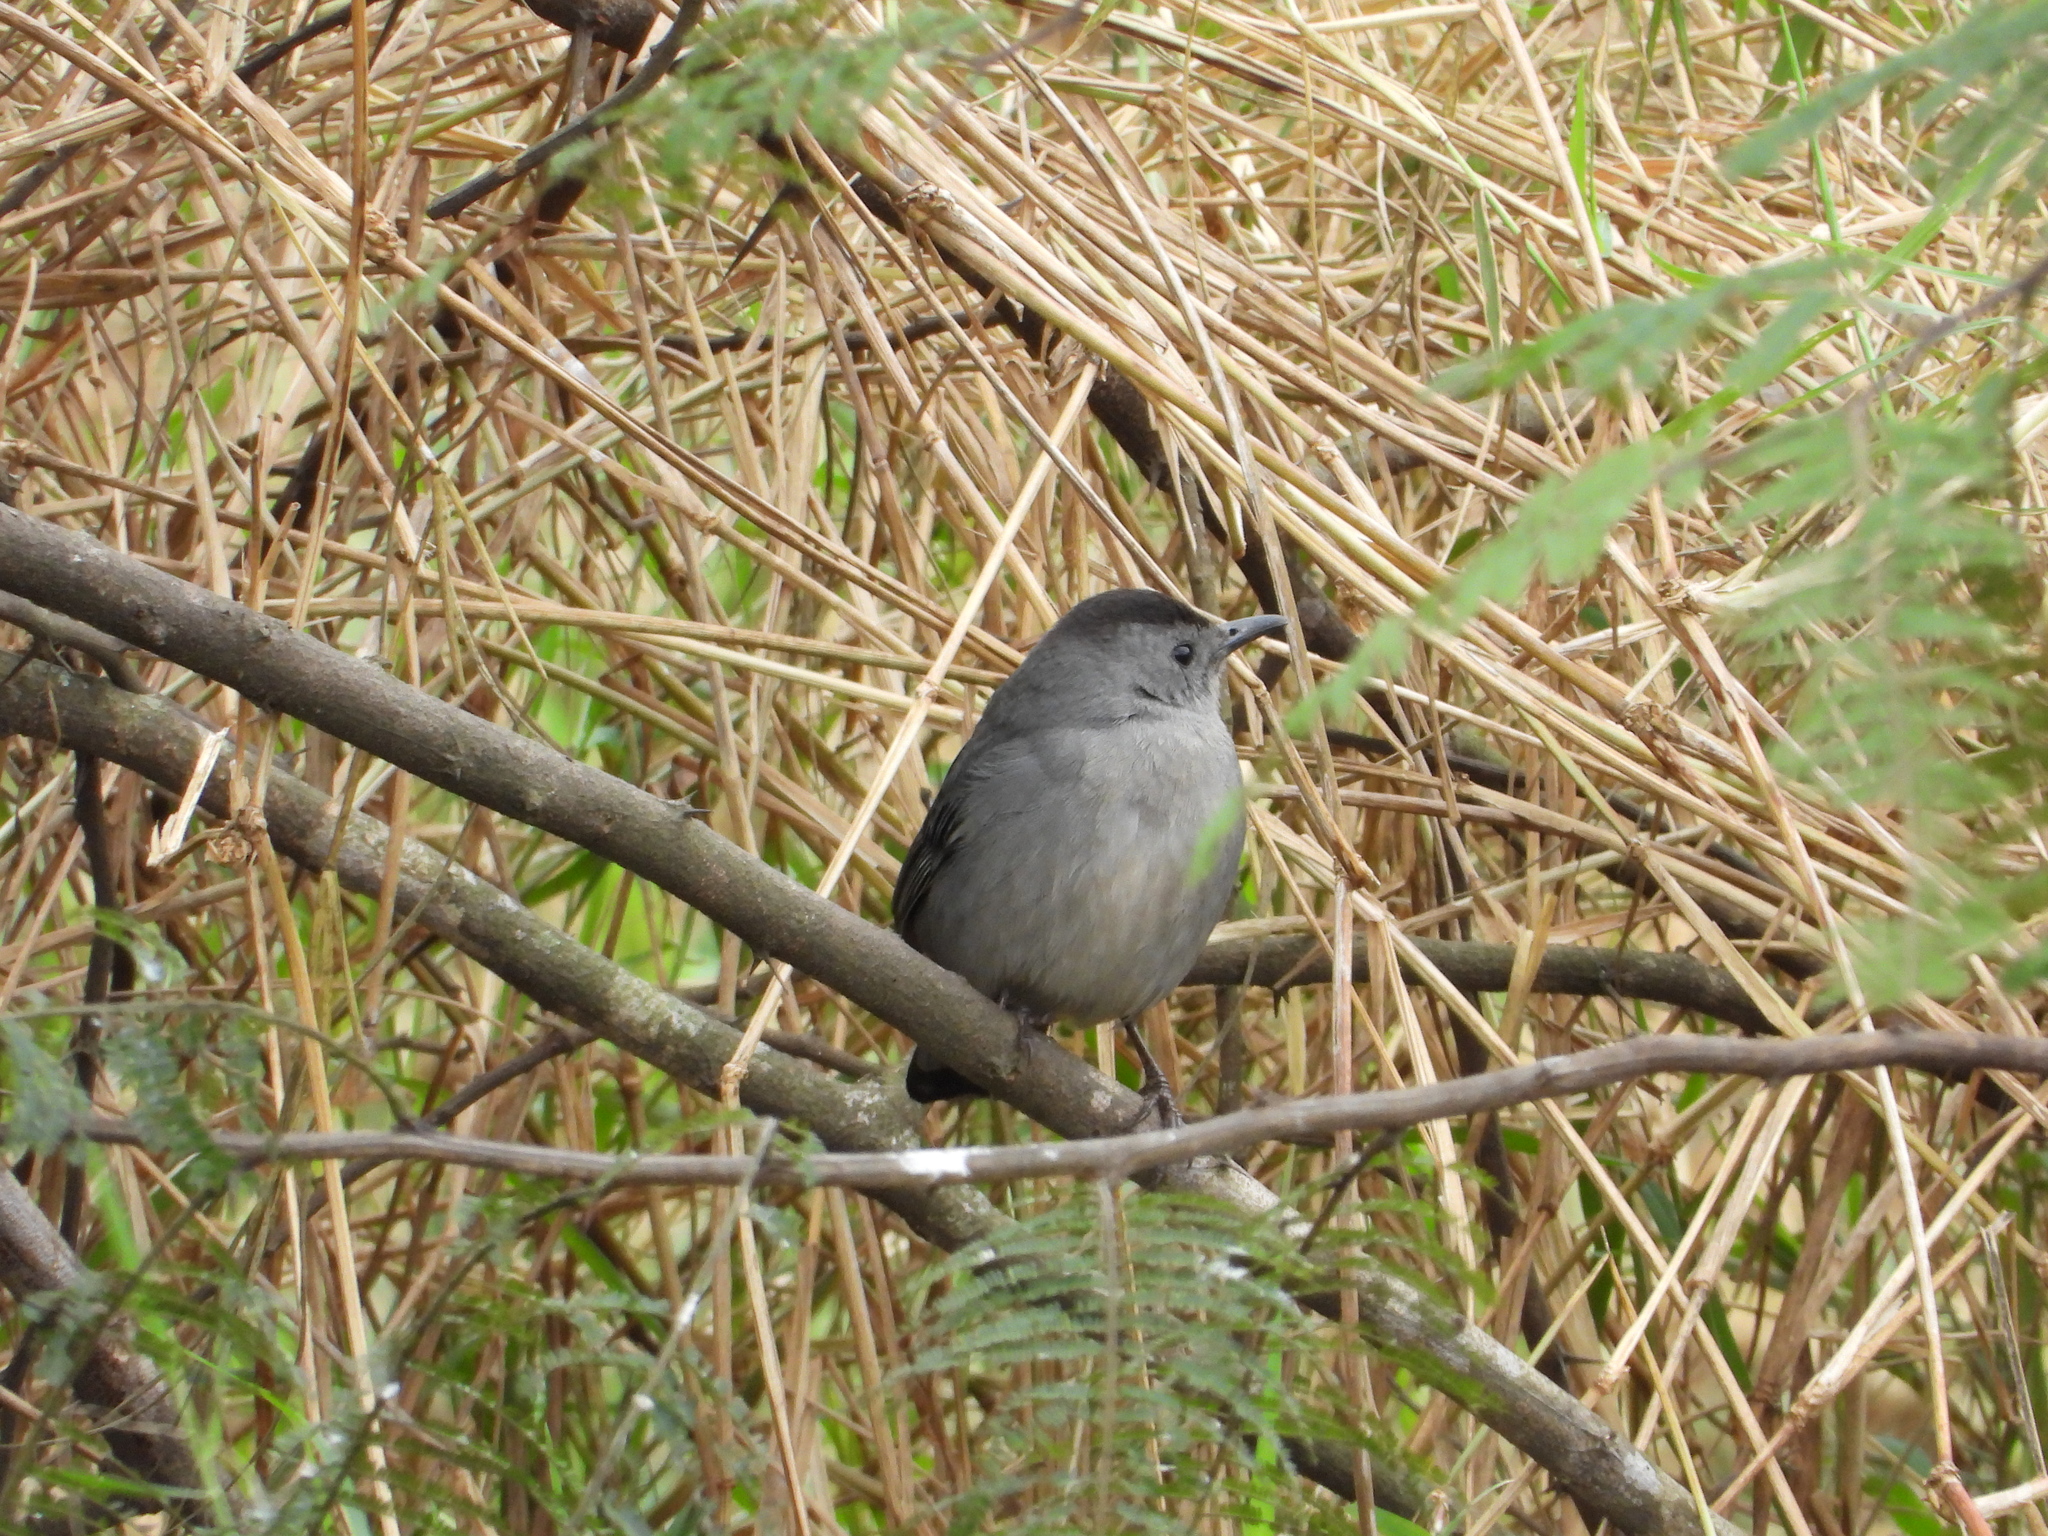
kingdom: Animalia
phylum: Chordata
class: Aves
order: Passeriformes
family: Mimidae
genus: Dumetella
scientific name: Dumetella carolinensis
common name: Gray catbird
